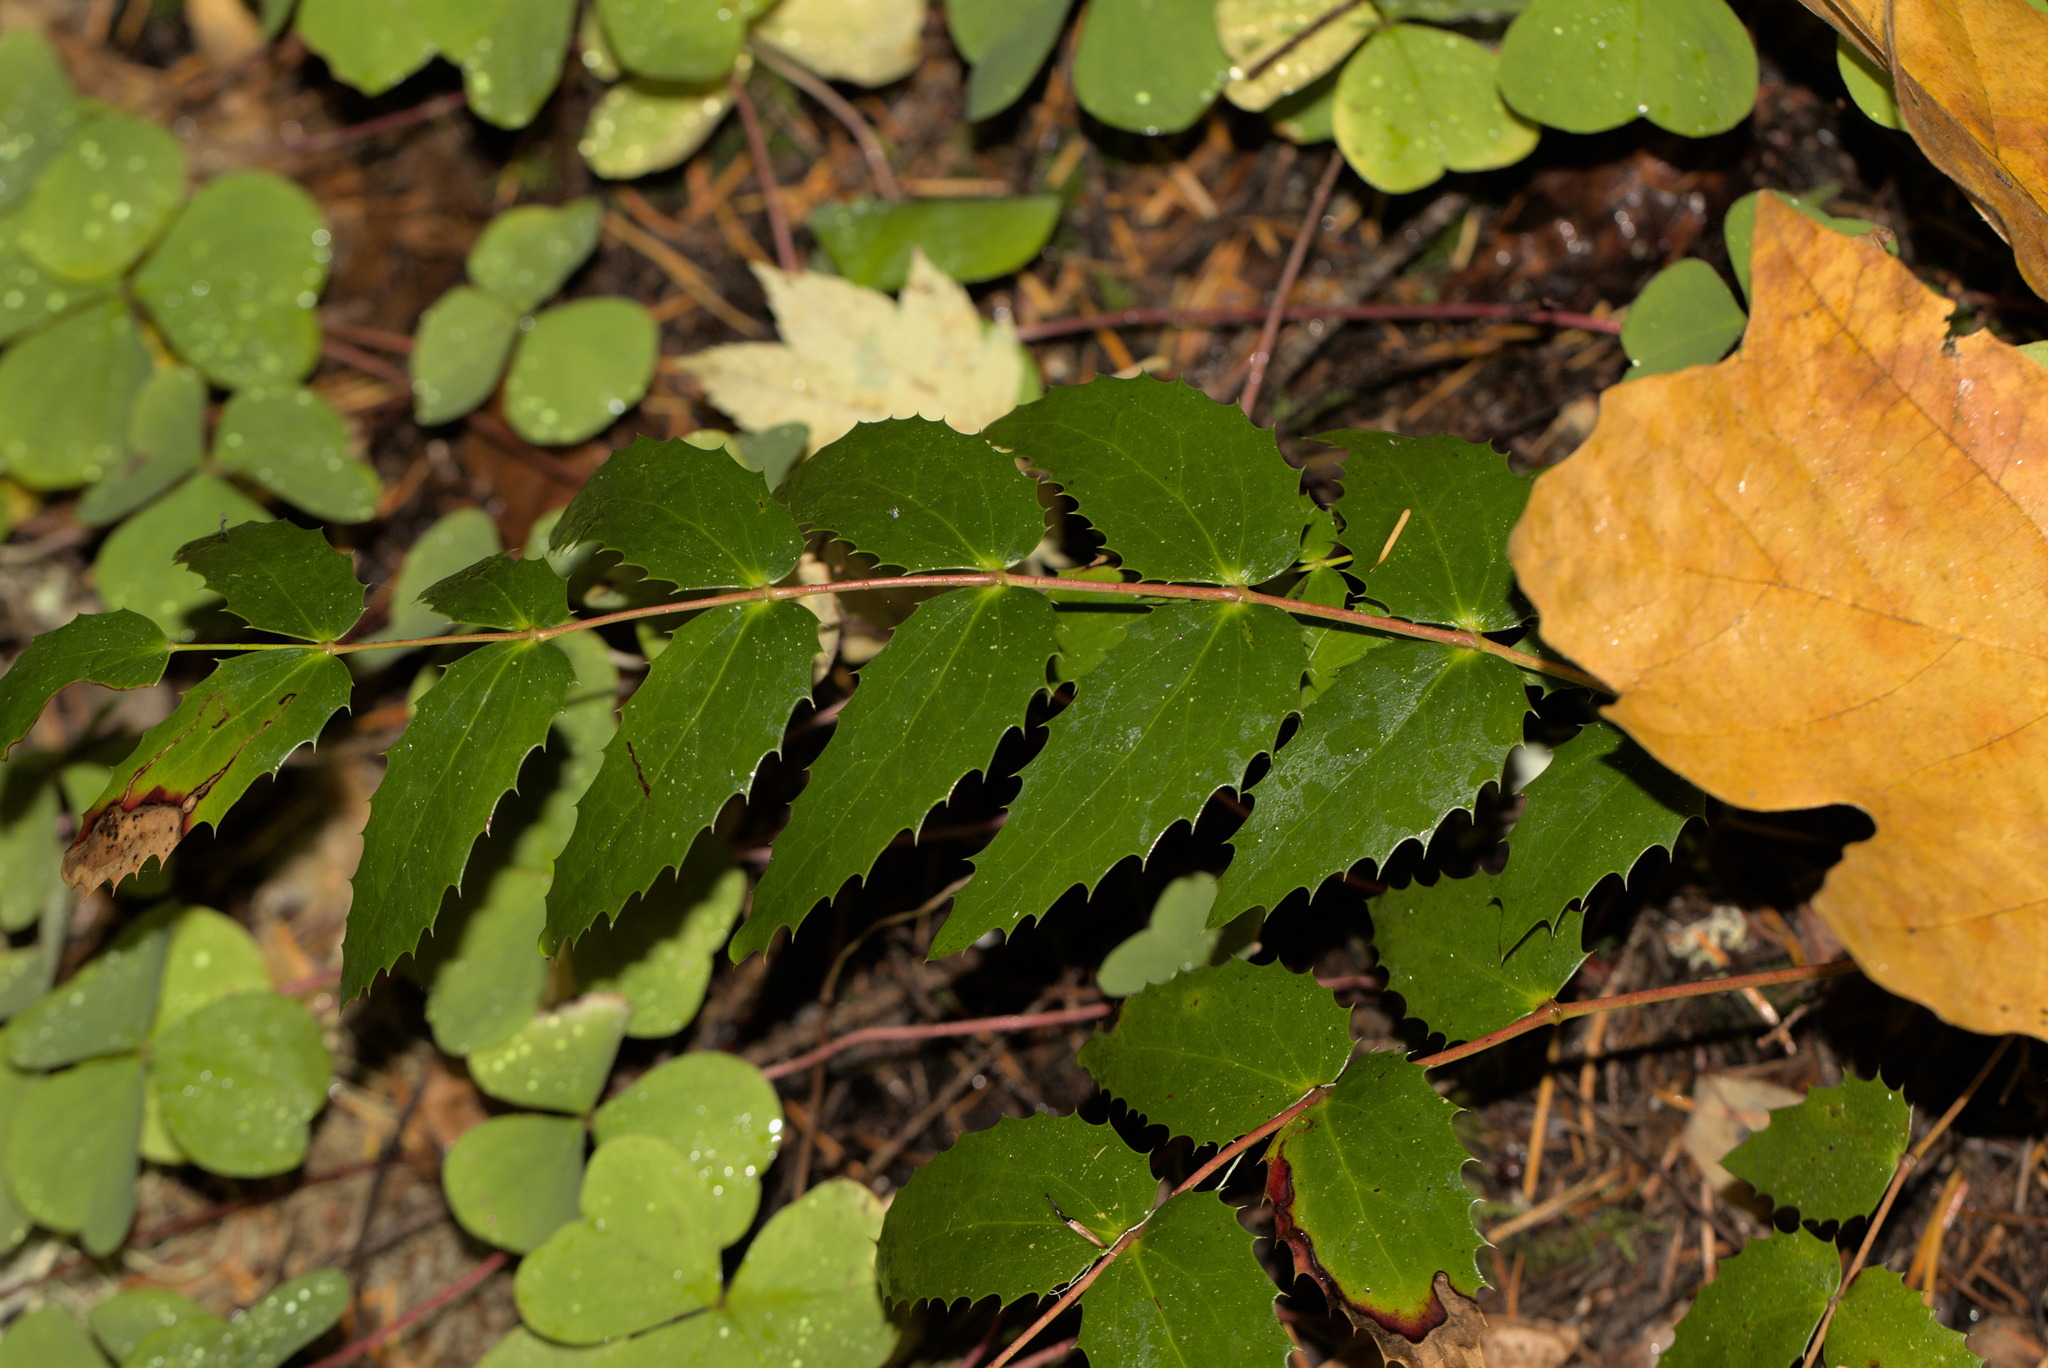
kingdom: Plantae
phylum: Tracheophyta
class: Magnoliopsida
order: Ranunculales
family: Berberidaceae
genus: Mahonia
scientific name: Mahonia nervosa
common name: Cascade oregon-grape
